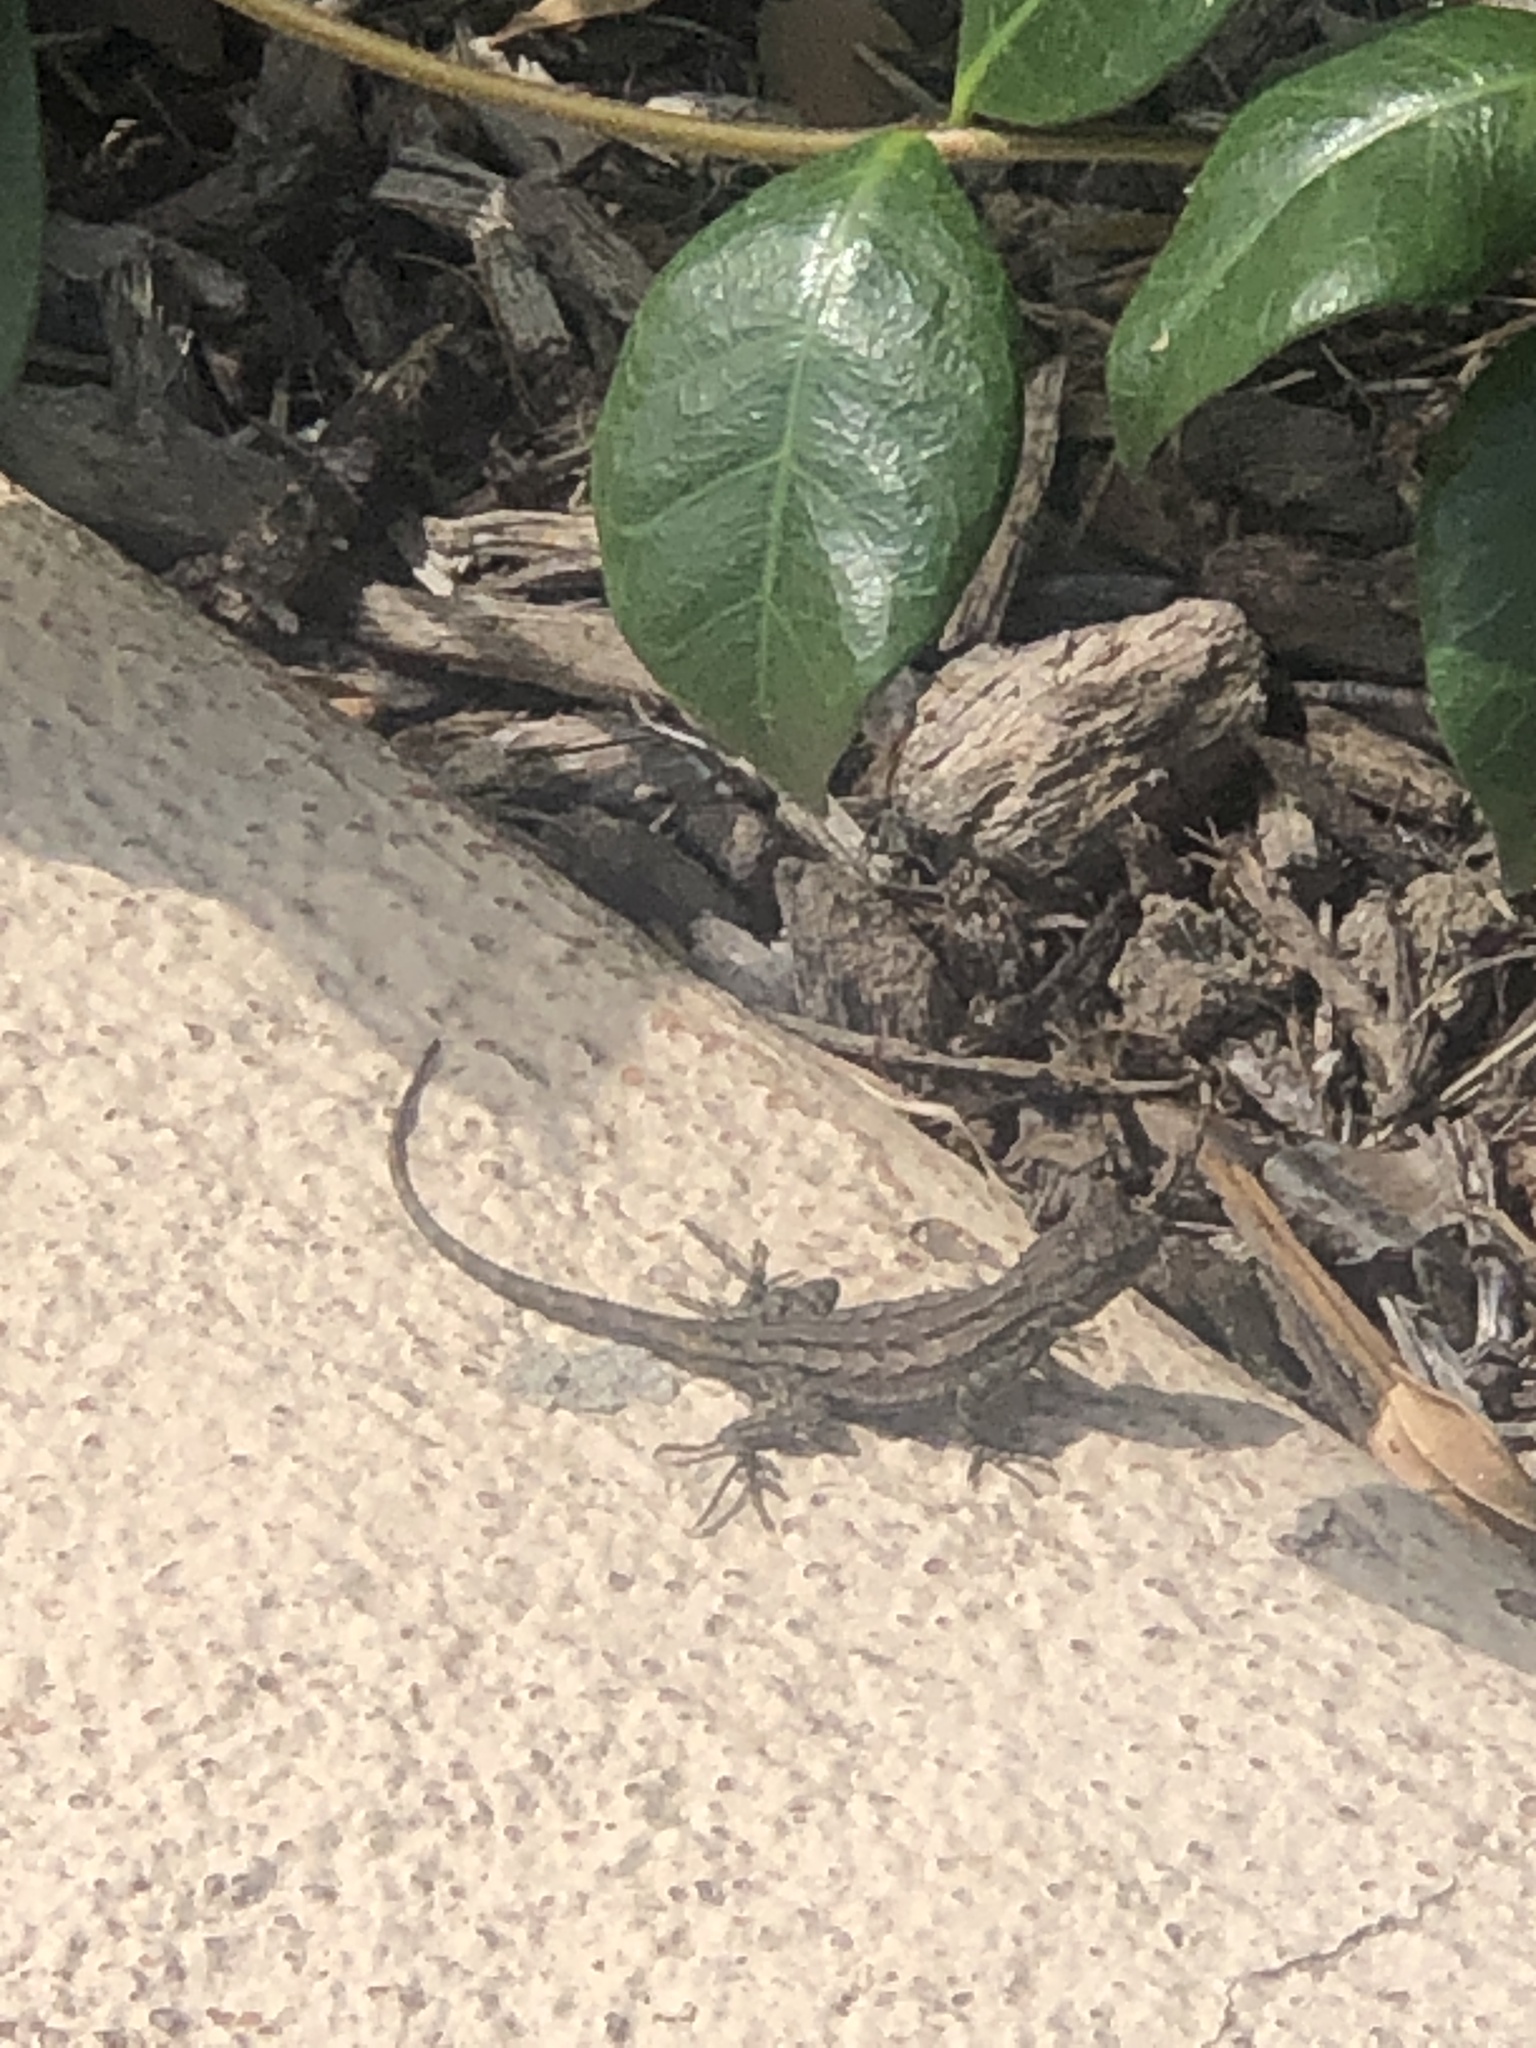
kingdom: Animalia
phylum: Chordata
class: Squamata
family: Phrynosomatidae
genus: Sceloporus
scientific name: Sceloporus occidentalis
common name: Western fence lizard
